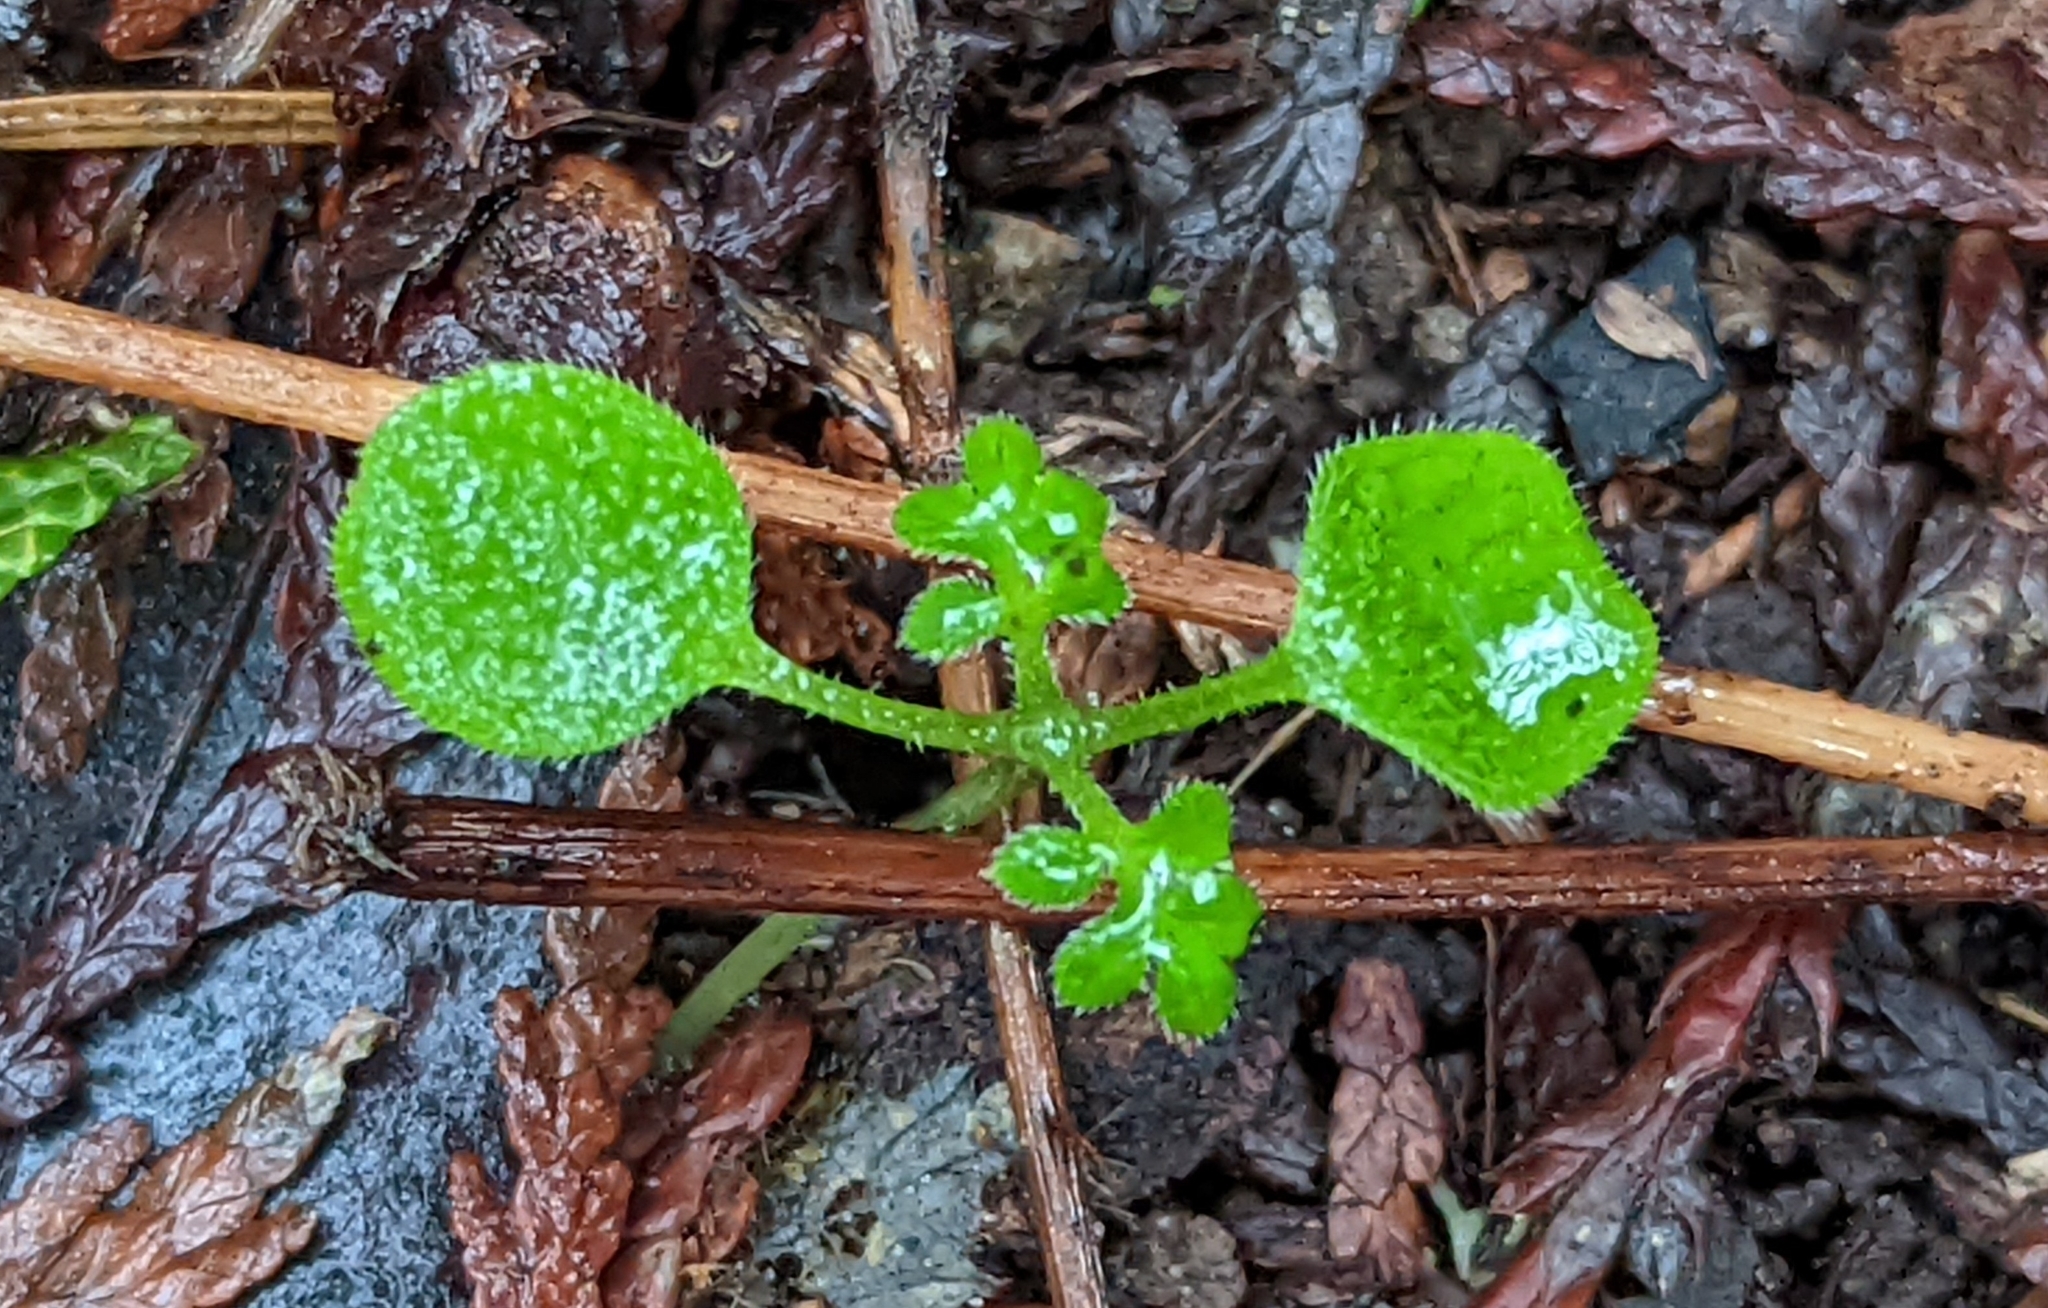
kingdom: Plantae
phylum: Tracheophyta
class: Magnoliopsida
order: Boraginales
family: Hydrophyllaceae
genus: Nemophila
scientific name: Nemophila parviflora
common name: Small-flowered baby-blue-eyes
